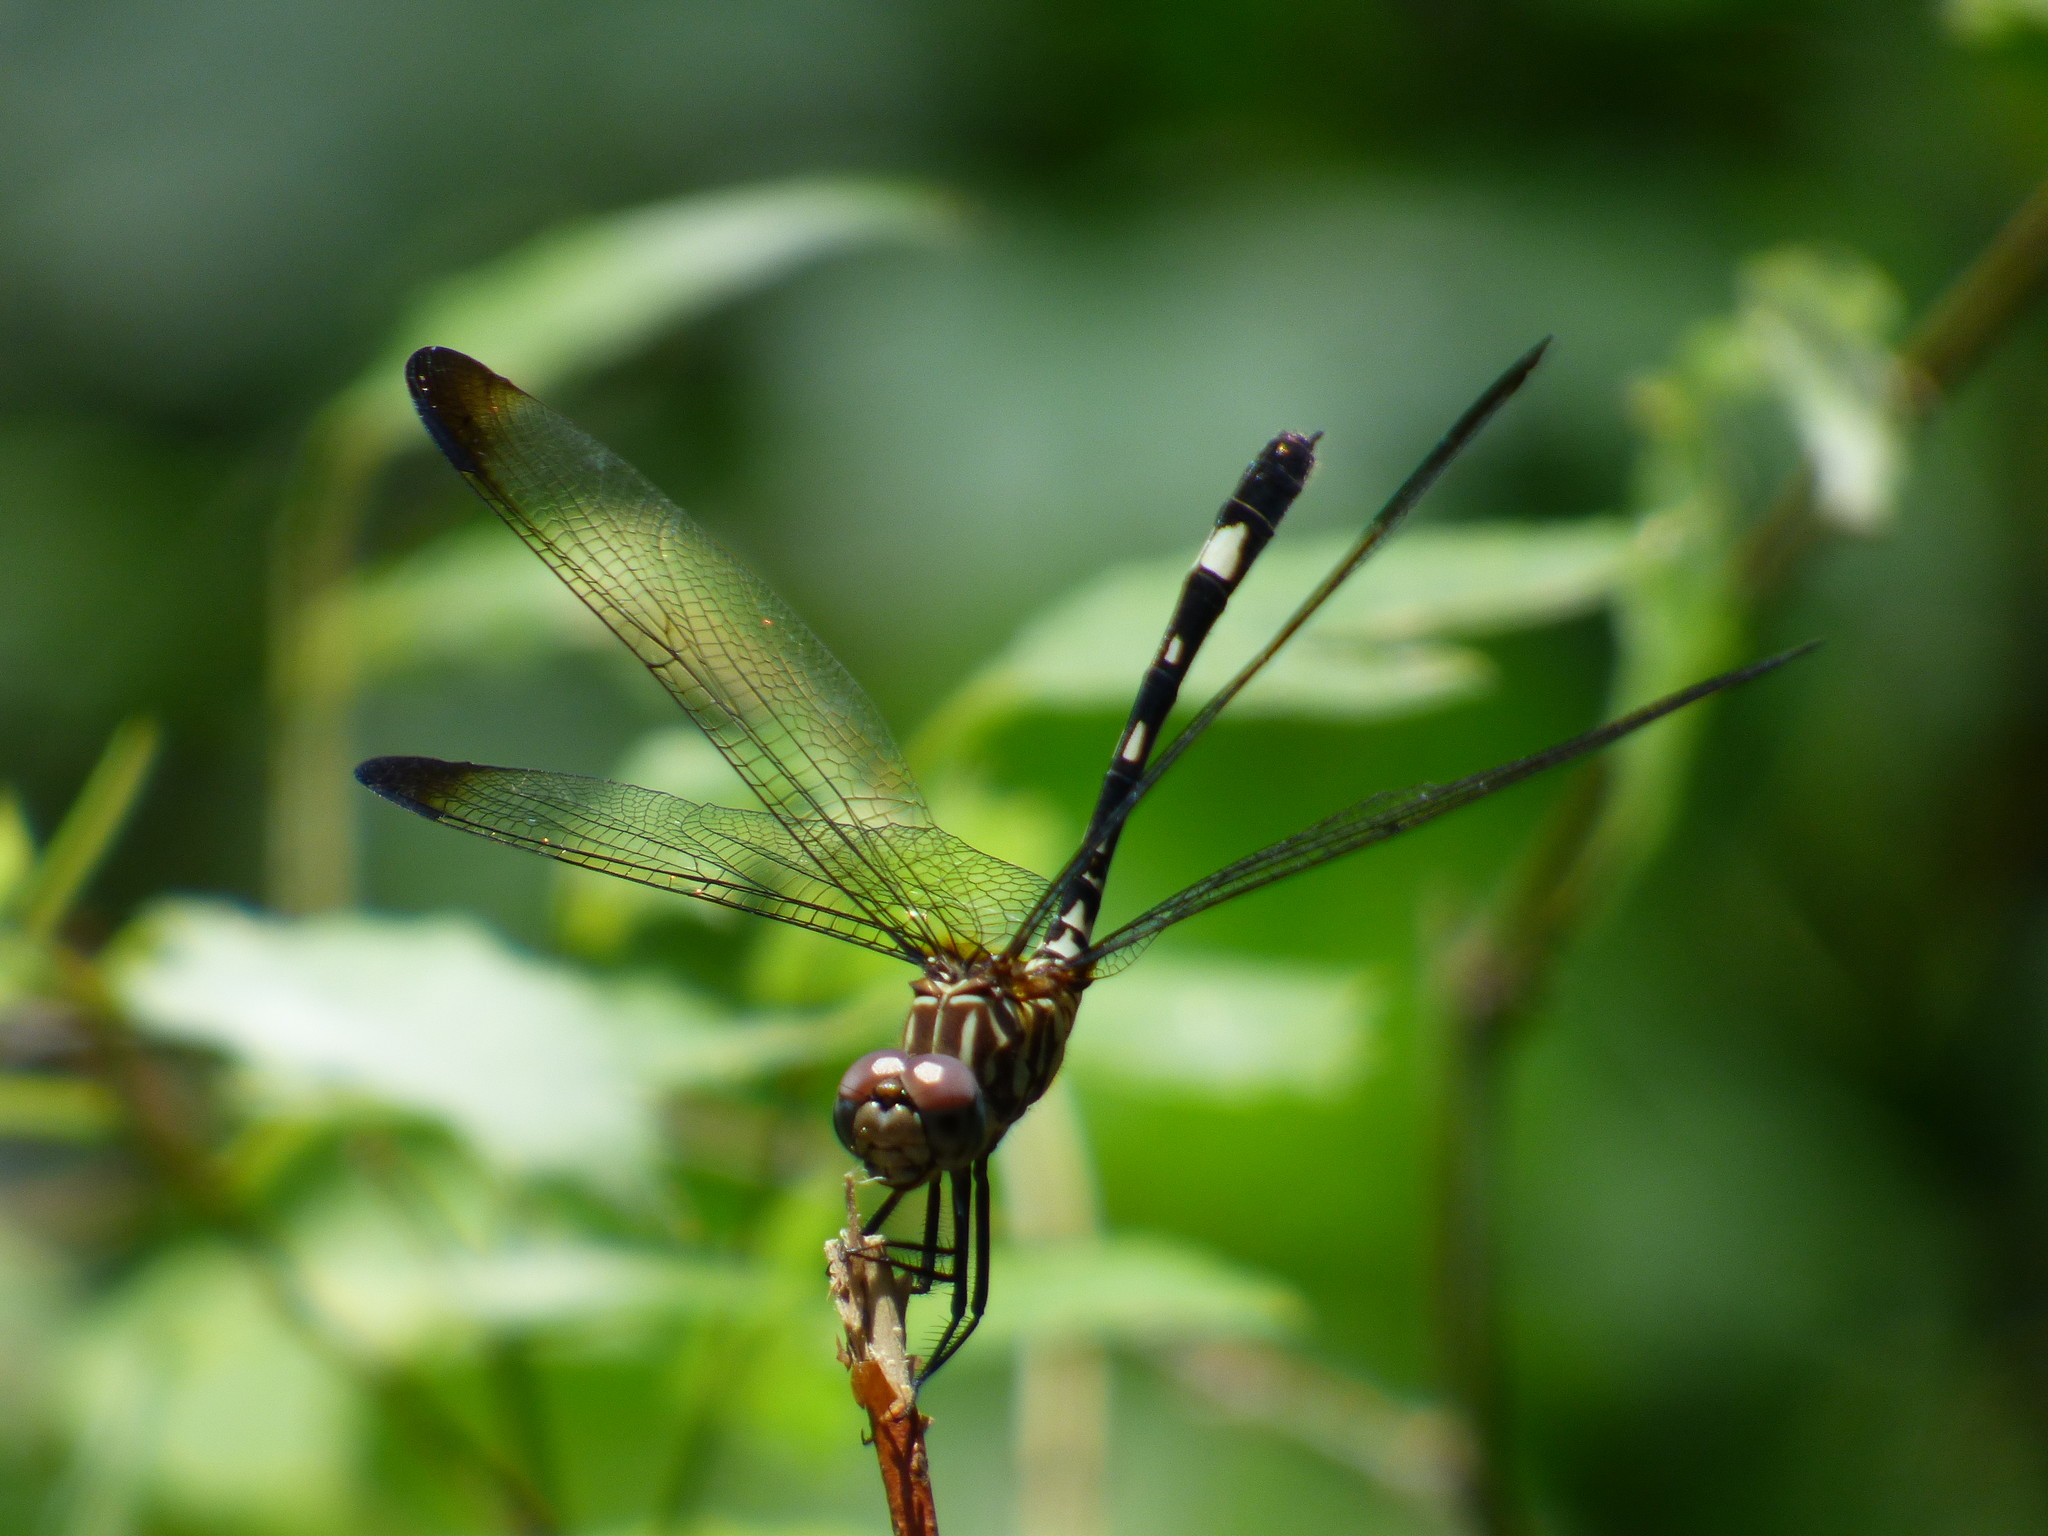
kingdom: Animalia
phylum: Arthropoda
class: Insecta
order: Odonata
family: Libellulidae
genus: Dythemis
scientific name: Dythemis velox
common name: Swift setwing
